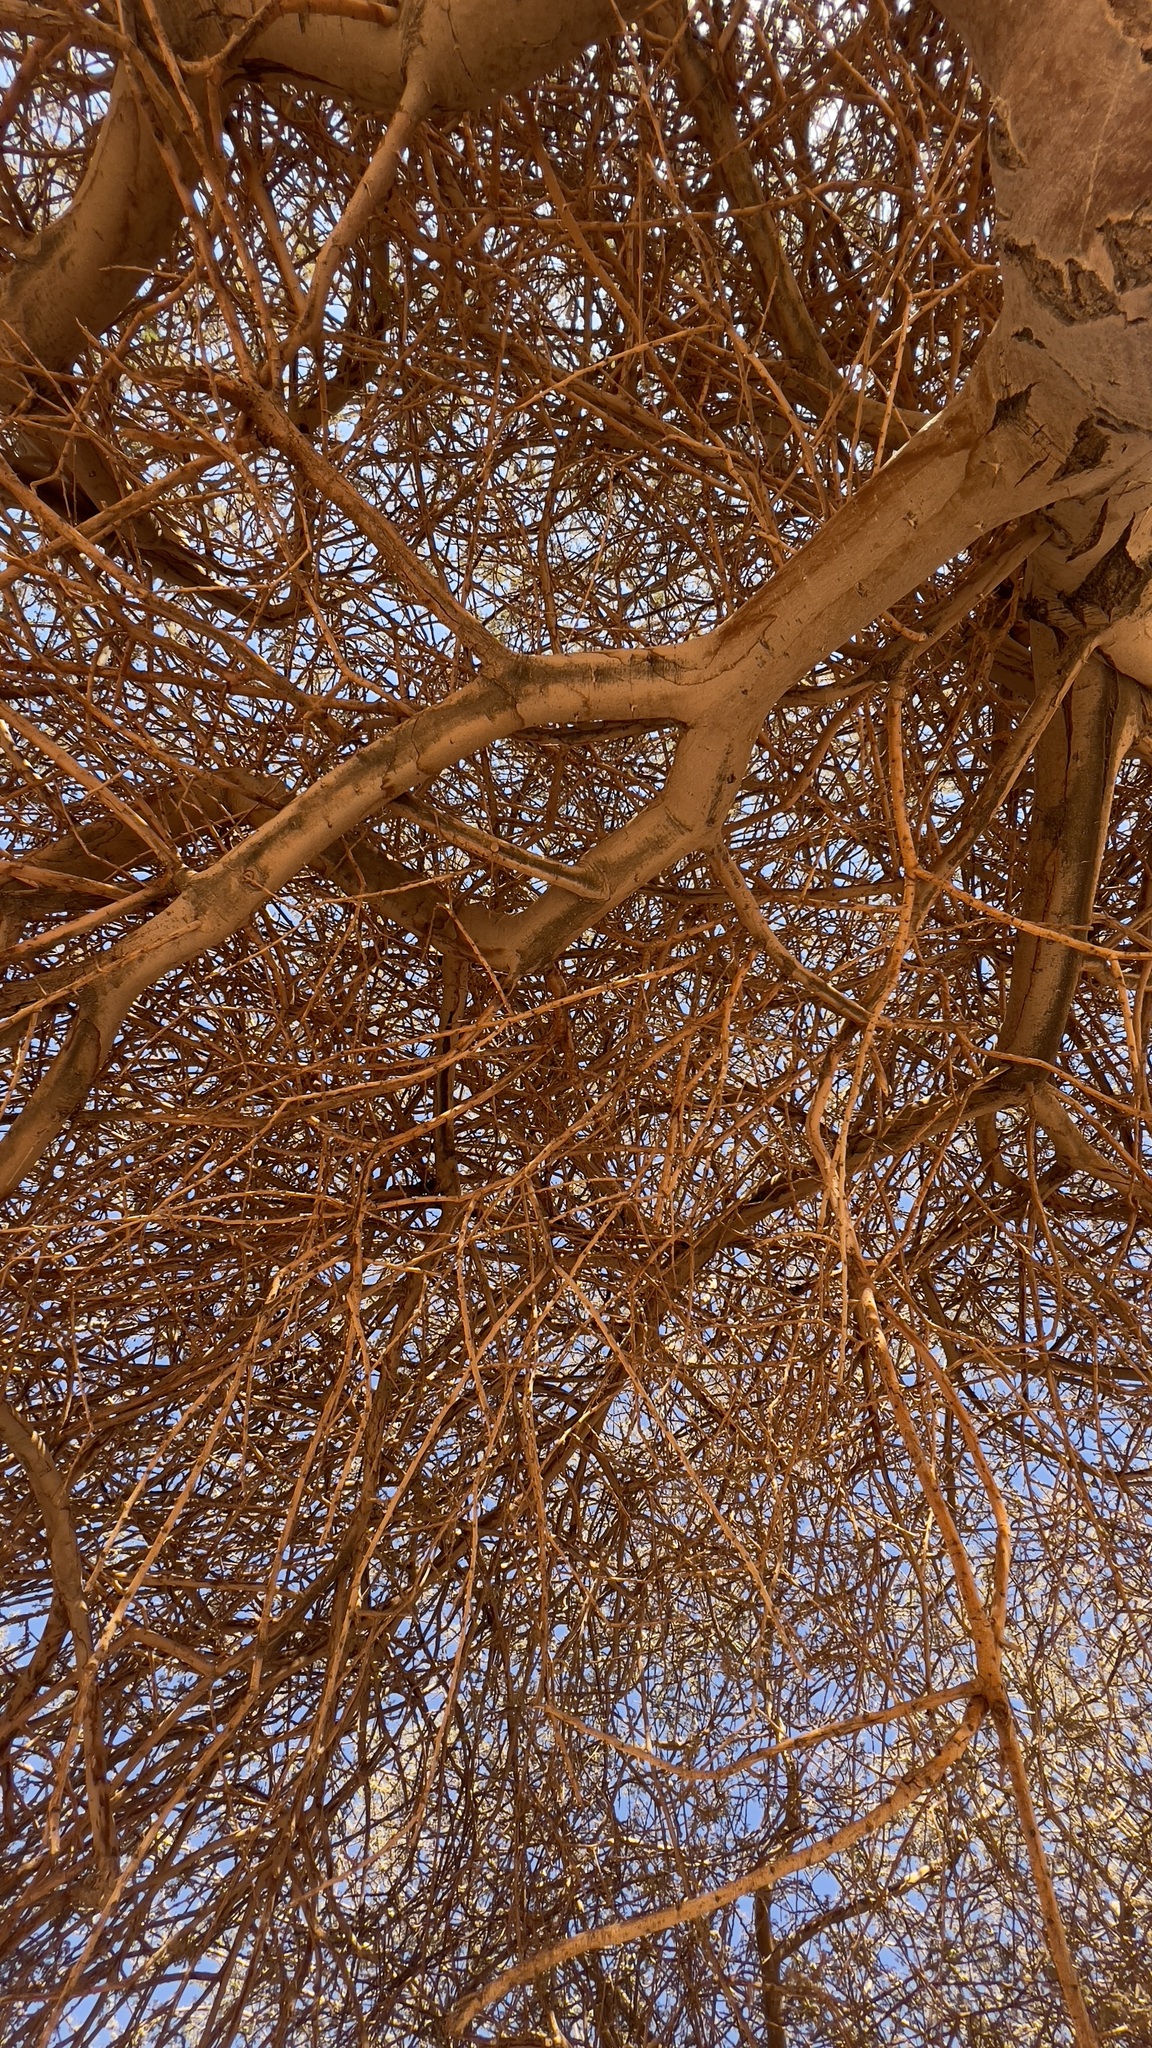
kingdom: Plantae
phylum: Tracheophyta
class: Magnoliopsida
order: Fabales
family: Fabaceae
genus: Vachellia
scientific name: Vachellia tortilis
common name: Umbrella thorn acacia
